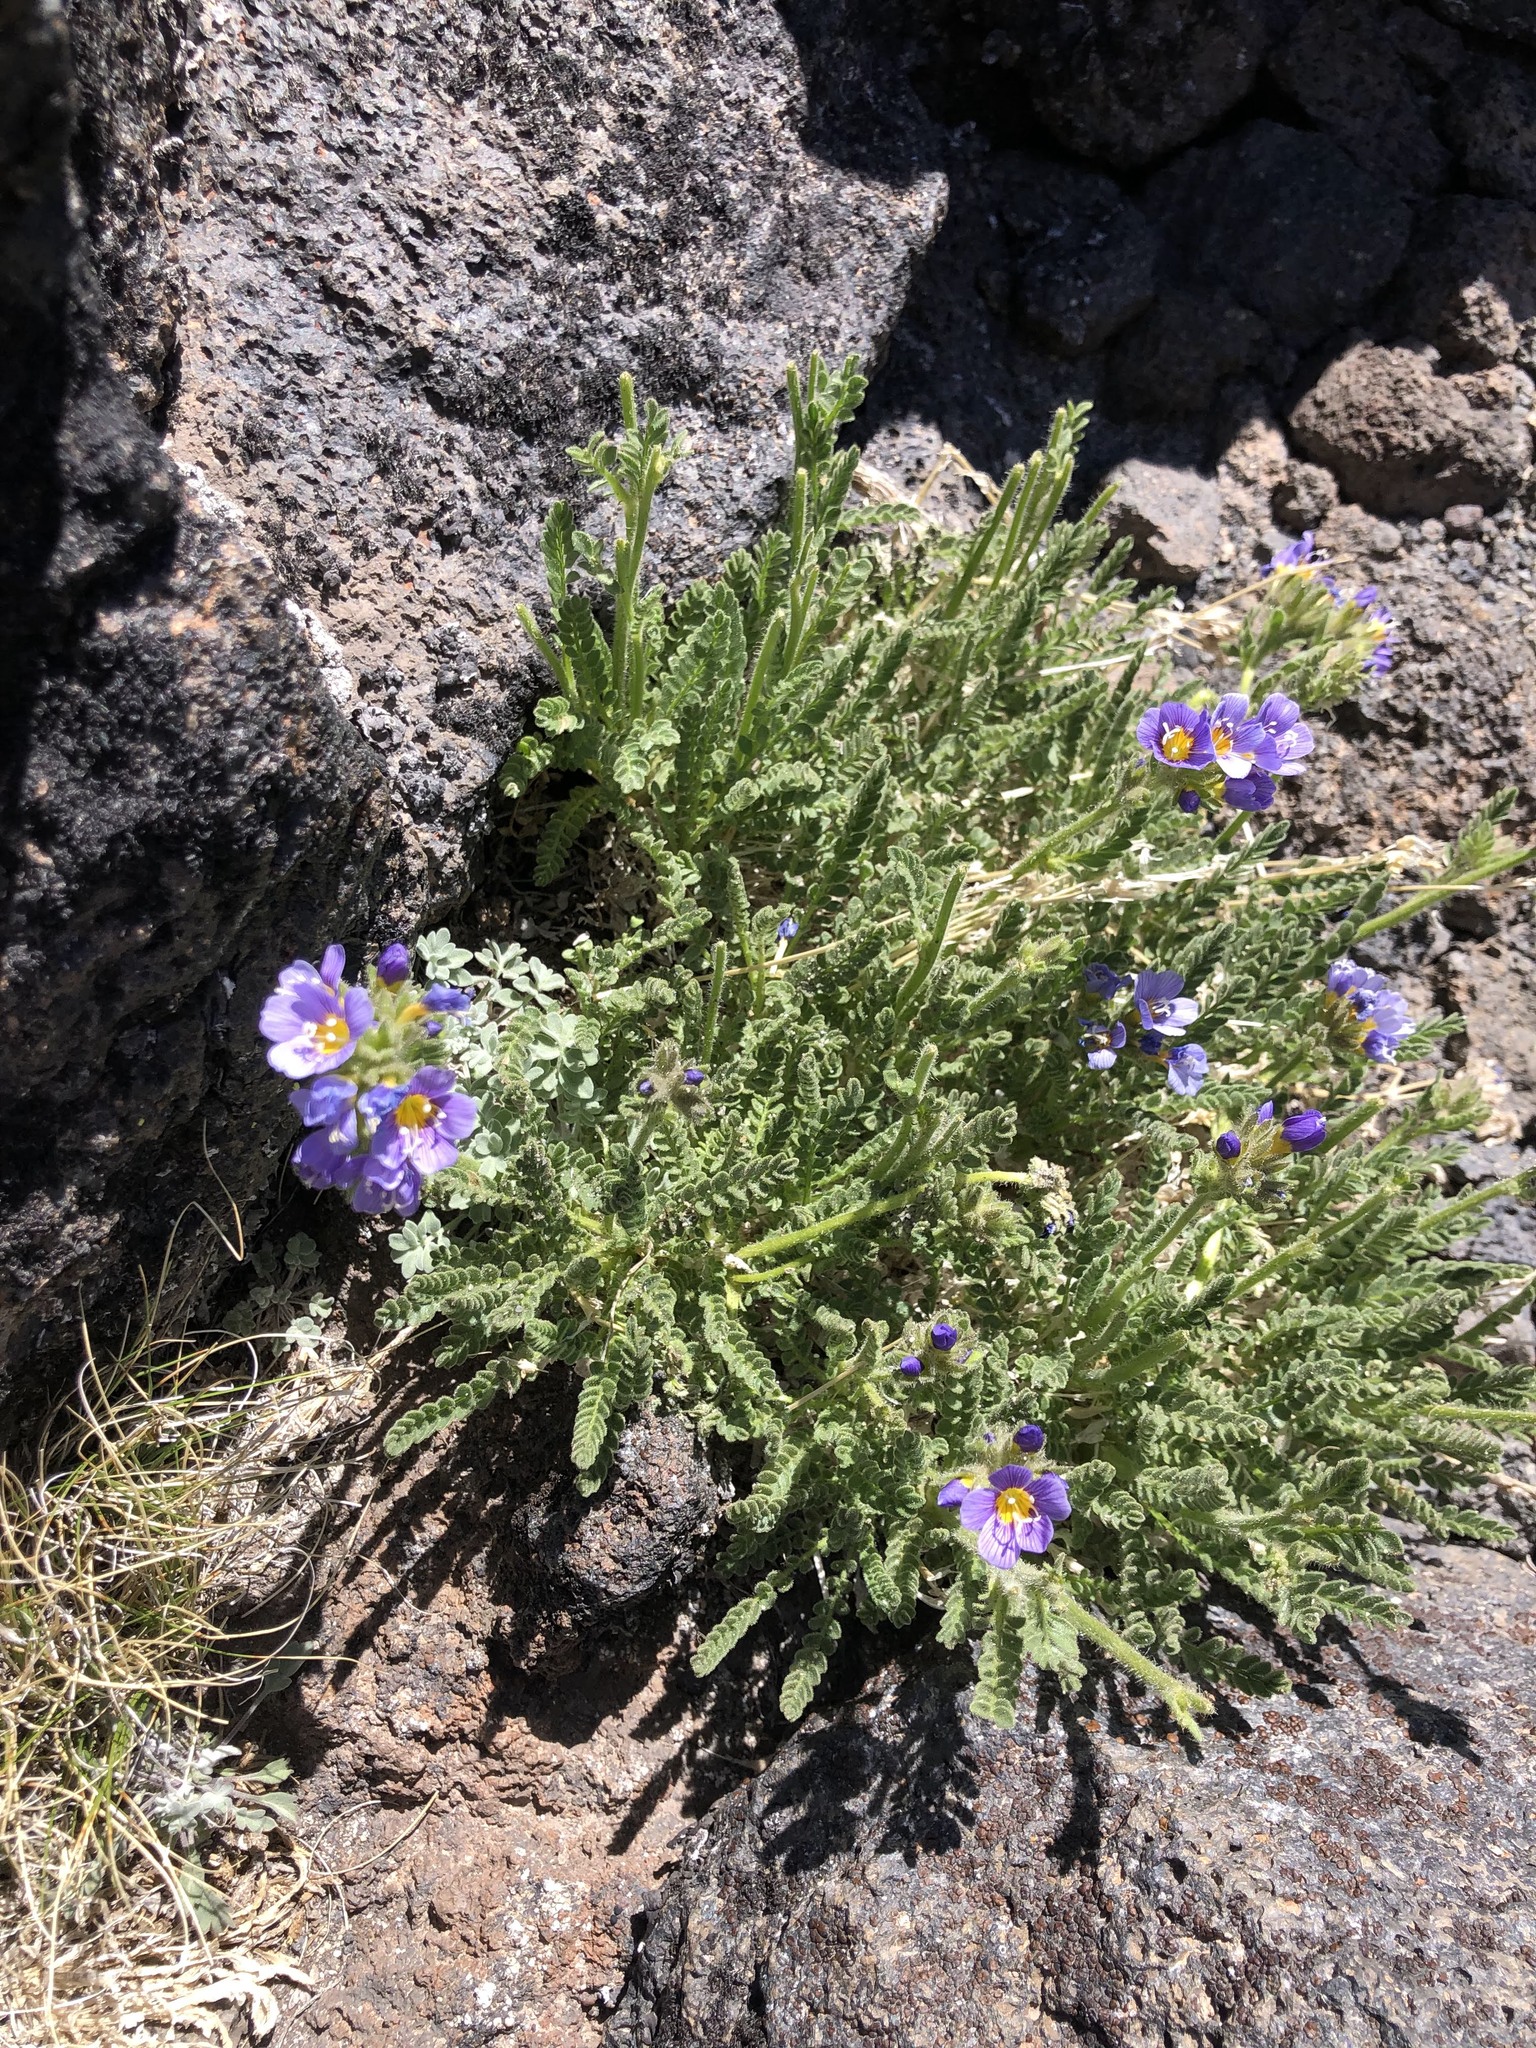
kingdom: Plantae
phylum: Tracheophyta
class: Magnoliopsida
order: Ericales
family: Polemoniaceae
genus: Polemonium
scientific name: Polemonium elegans
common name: Elegant jacob's-ladder
